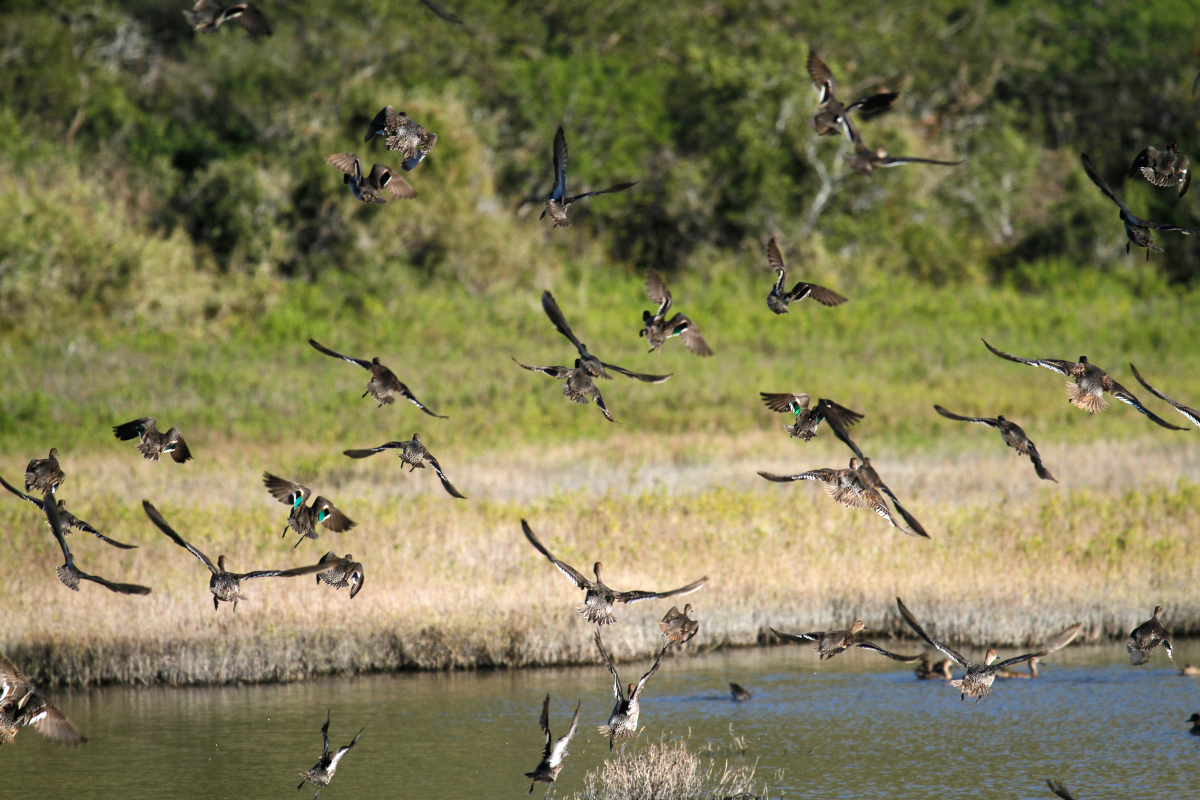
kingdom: Animalia
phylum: Chordata
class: Aves
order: Anseriformes
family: Anatidae
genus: Anas
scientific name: Anas crecca
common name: Eurasian teal
